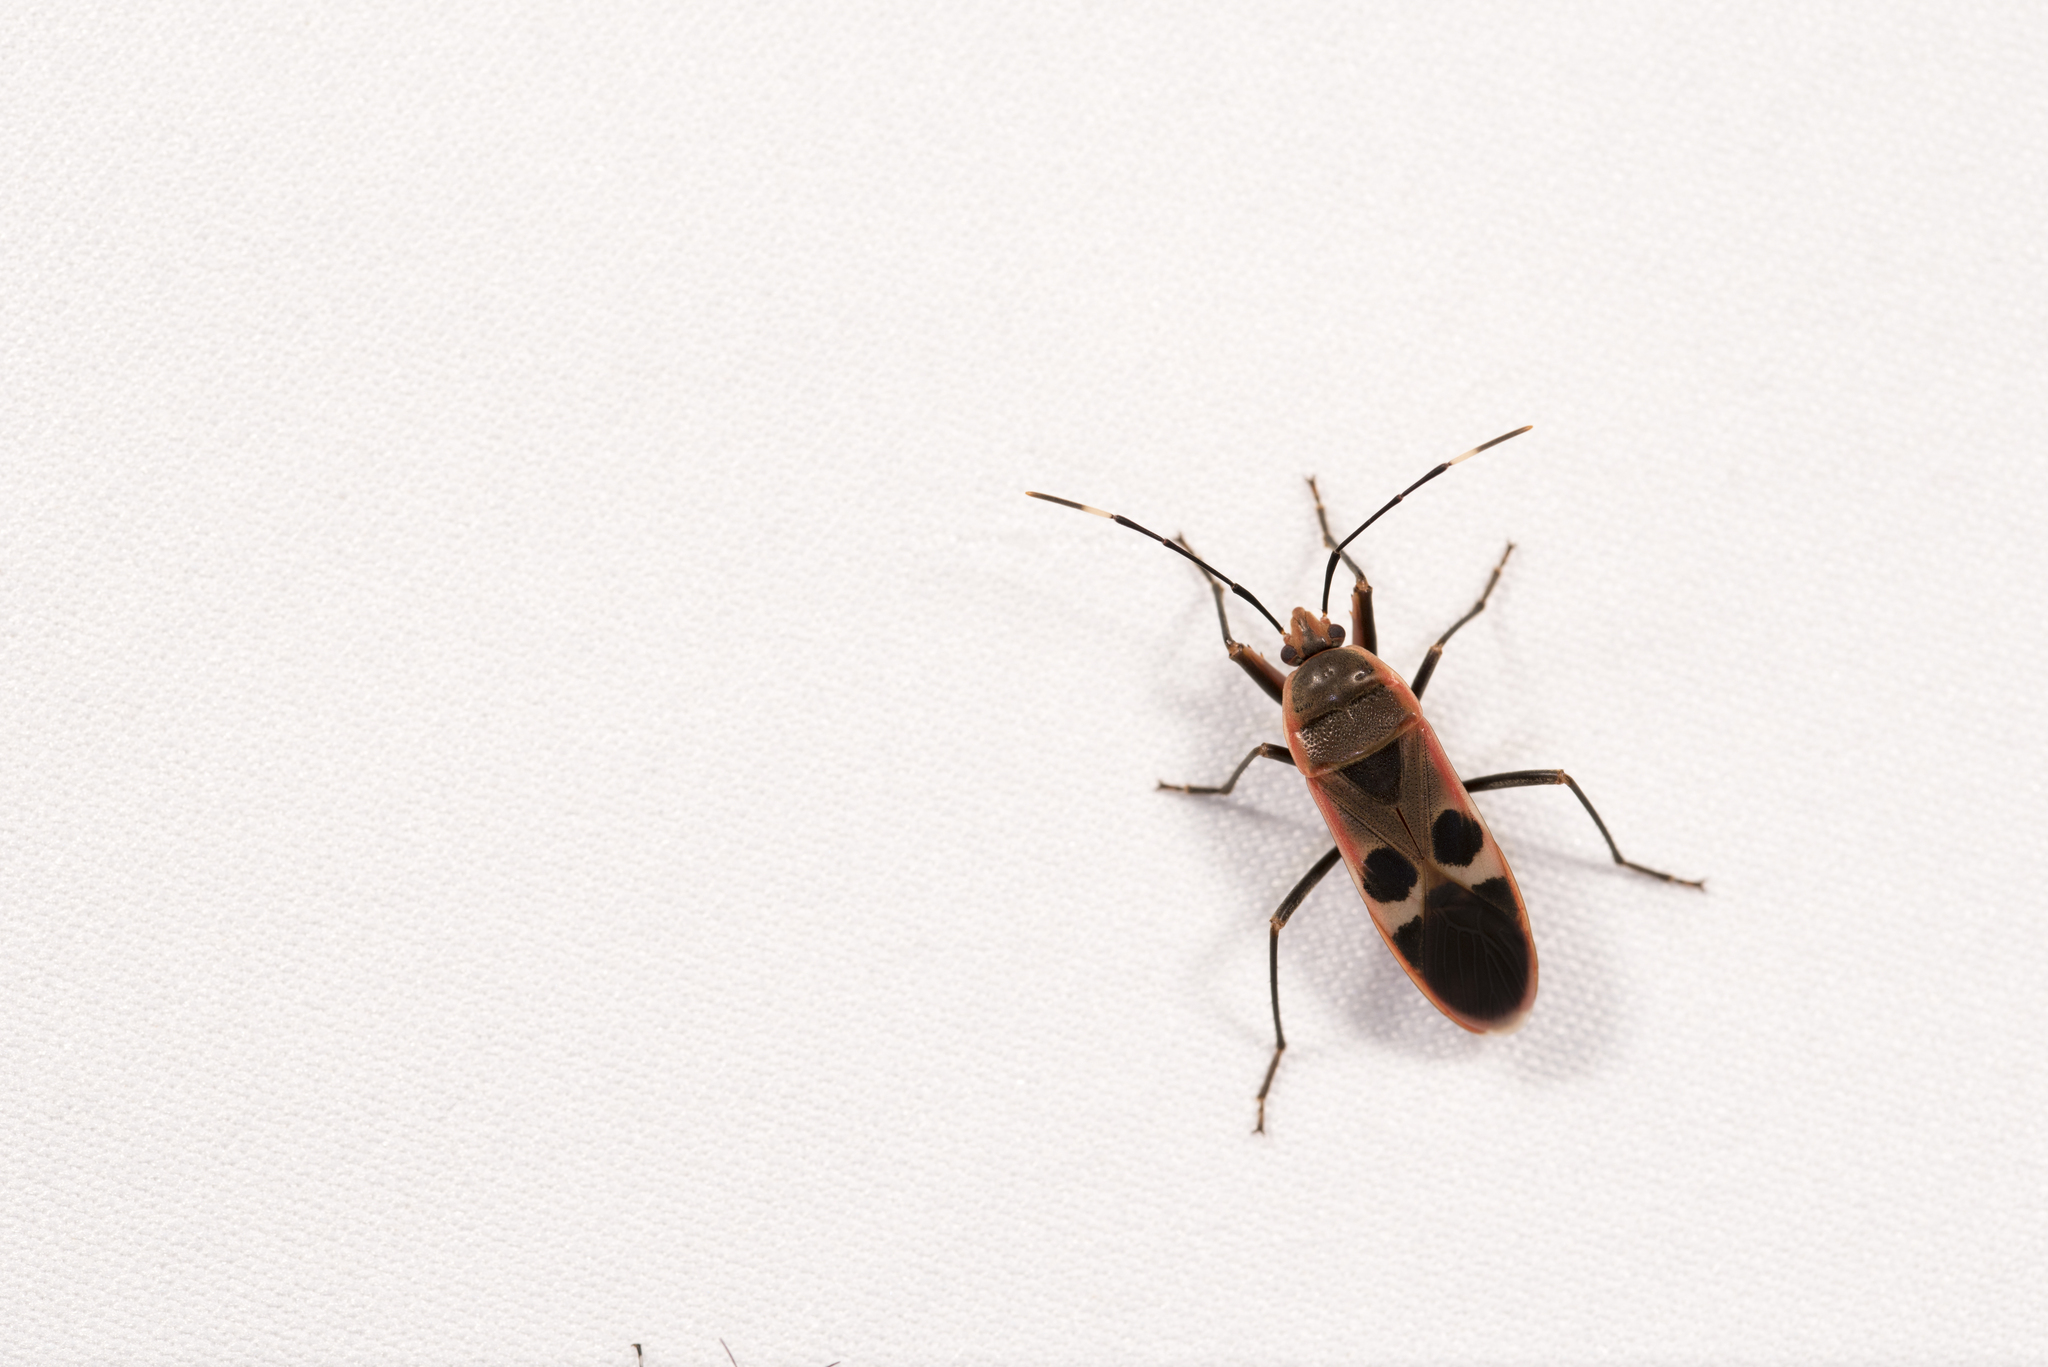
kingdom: Animalia
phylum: Arthropoda
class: Insecta
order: Hemiptera
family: Largidae
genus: Physopelta
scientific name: Physopelta gutta
